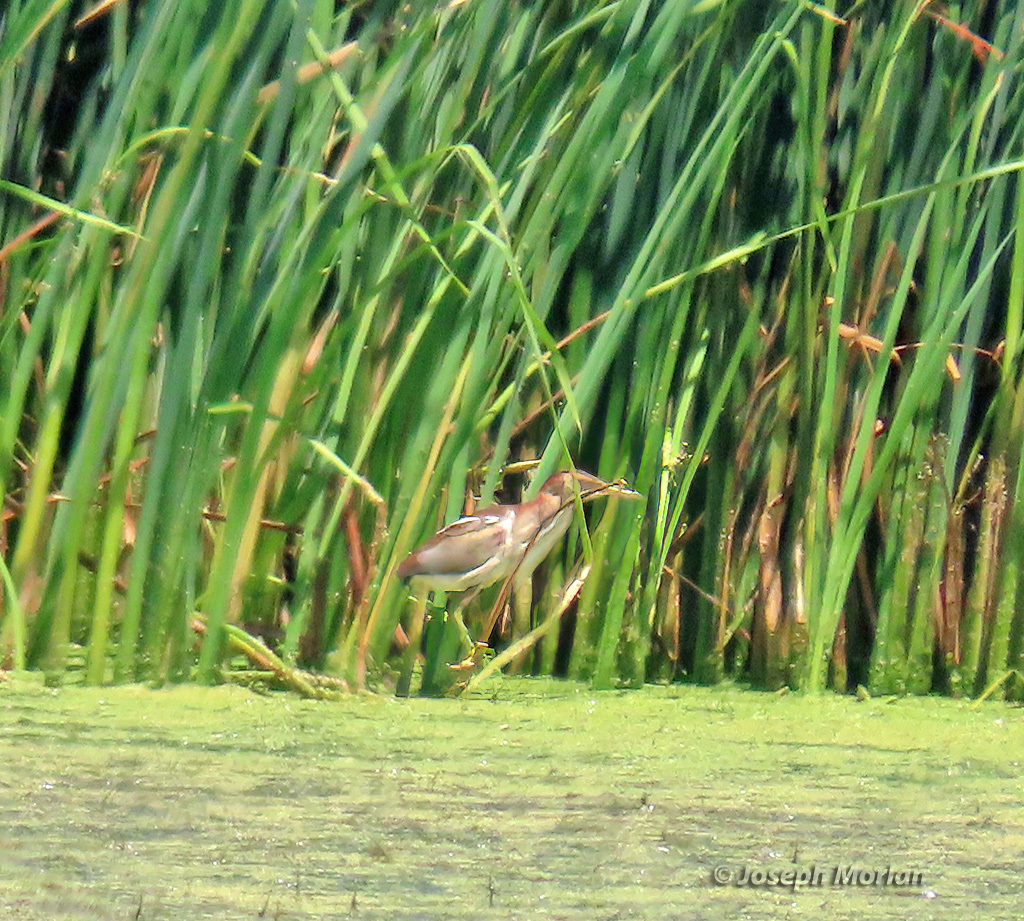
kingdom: Animalia
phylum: Chordata
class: Aves
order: Pelecaniformes
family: Ardeidae
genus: Ixobrychus
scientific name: Ixobrychus exilis
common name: Least bittern
